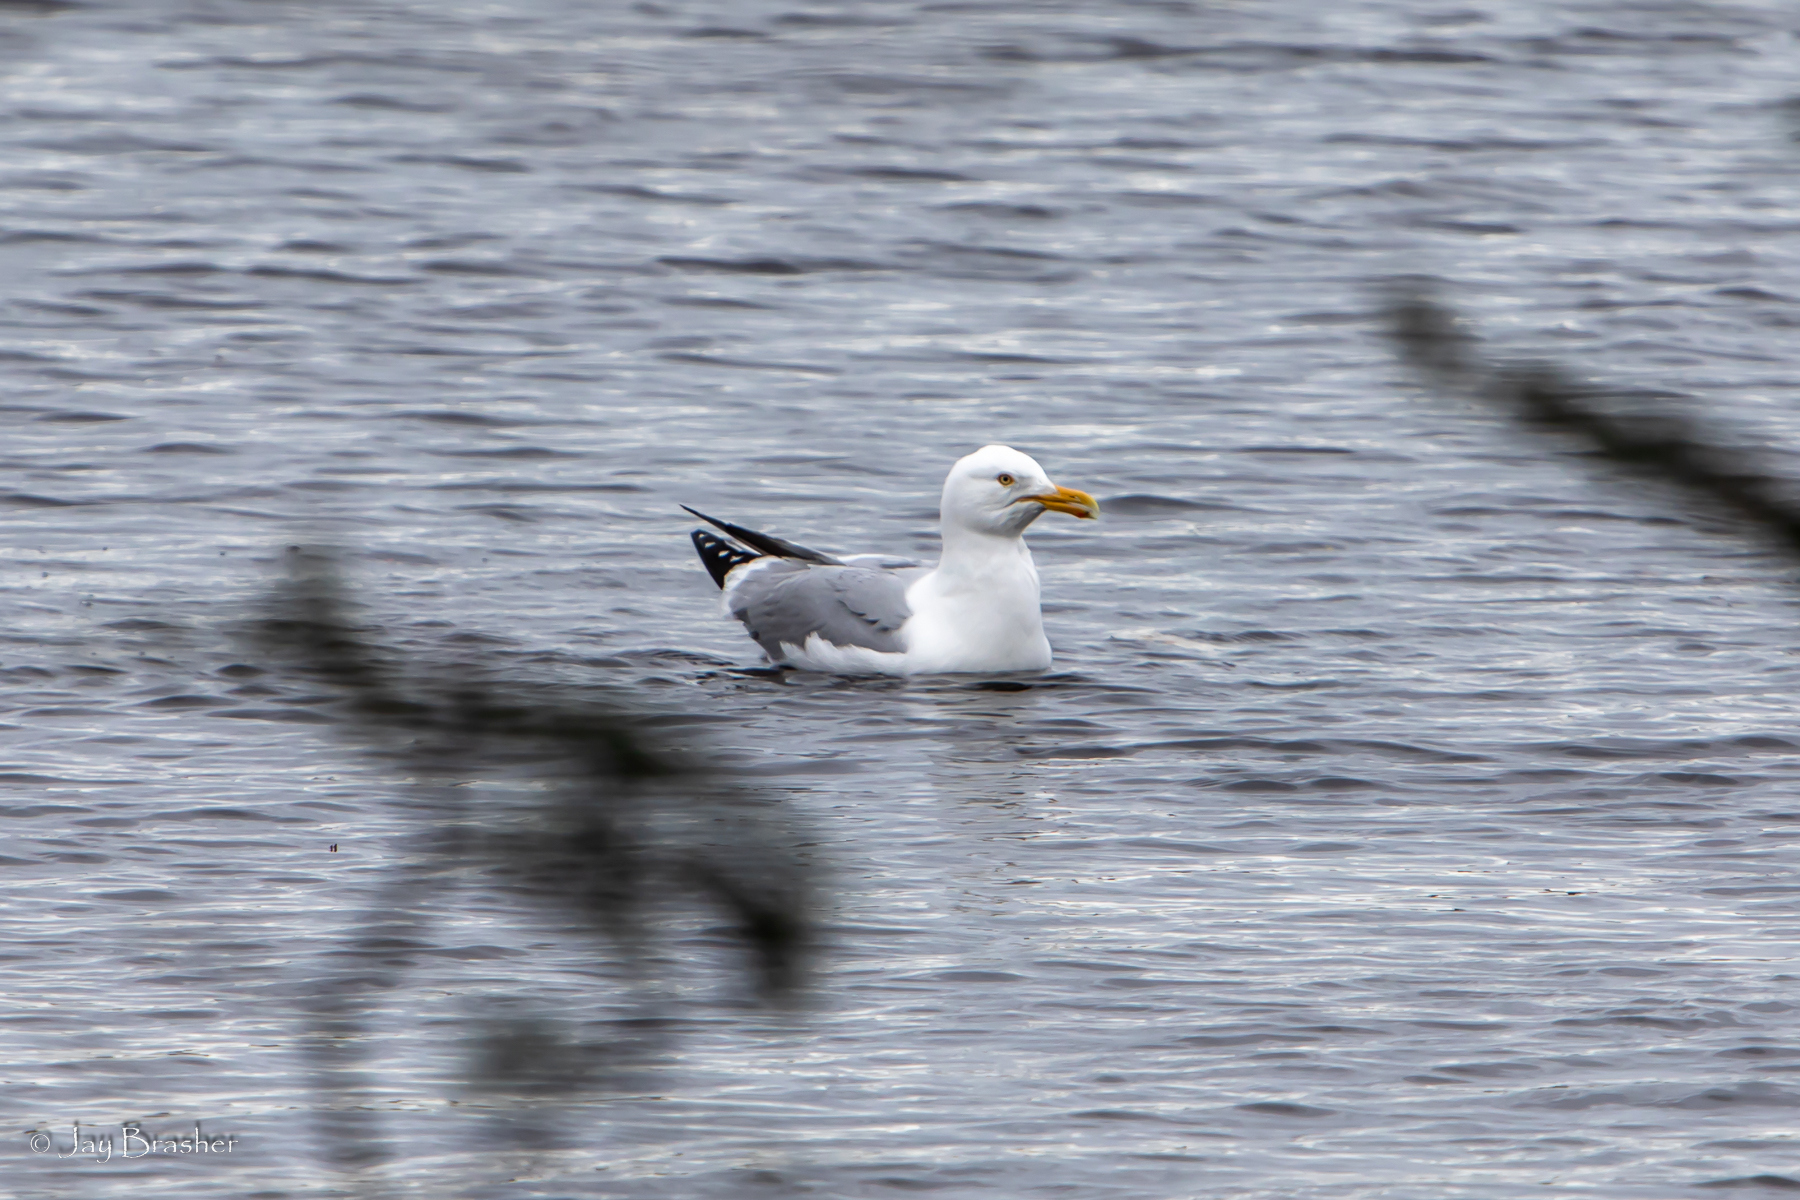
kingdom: Animalia
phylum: Chordata
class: Aves
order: Charadriiformes
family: Laridae
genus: Larus
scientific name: Larus argentatus
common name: Herring gull
